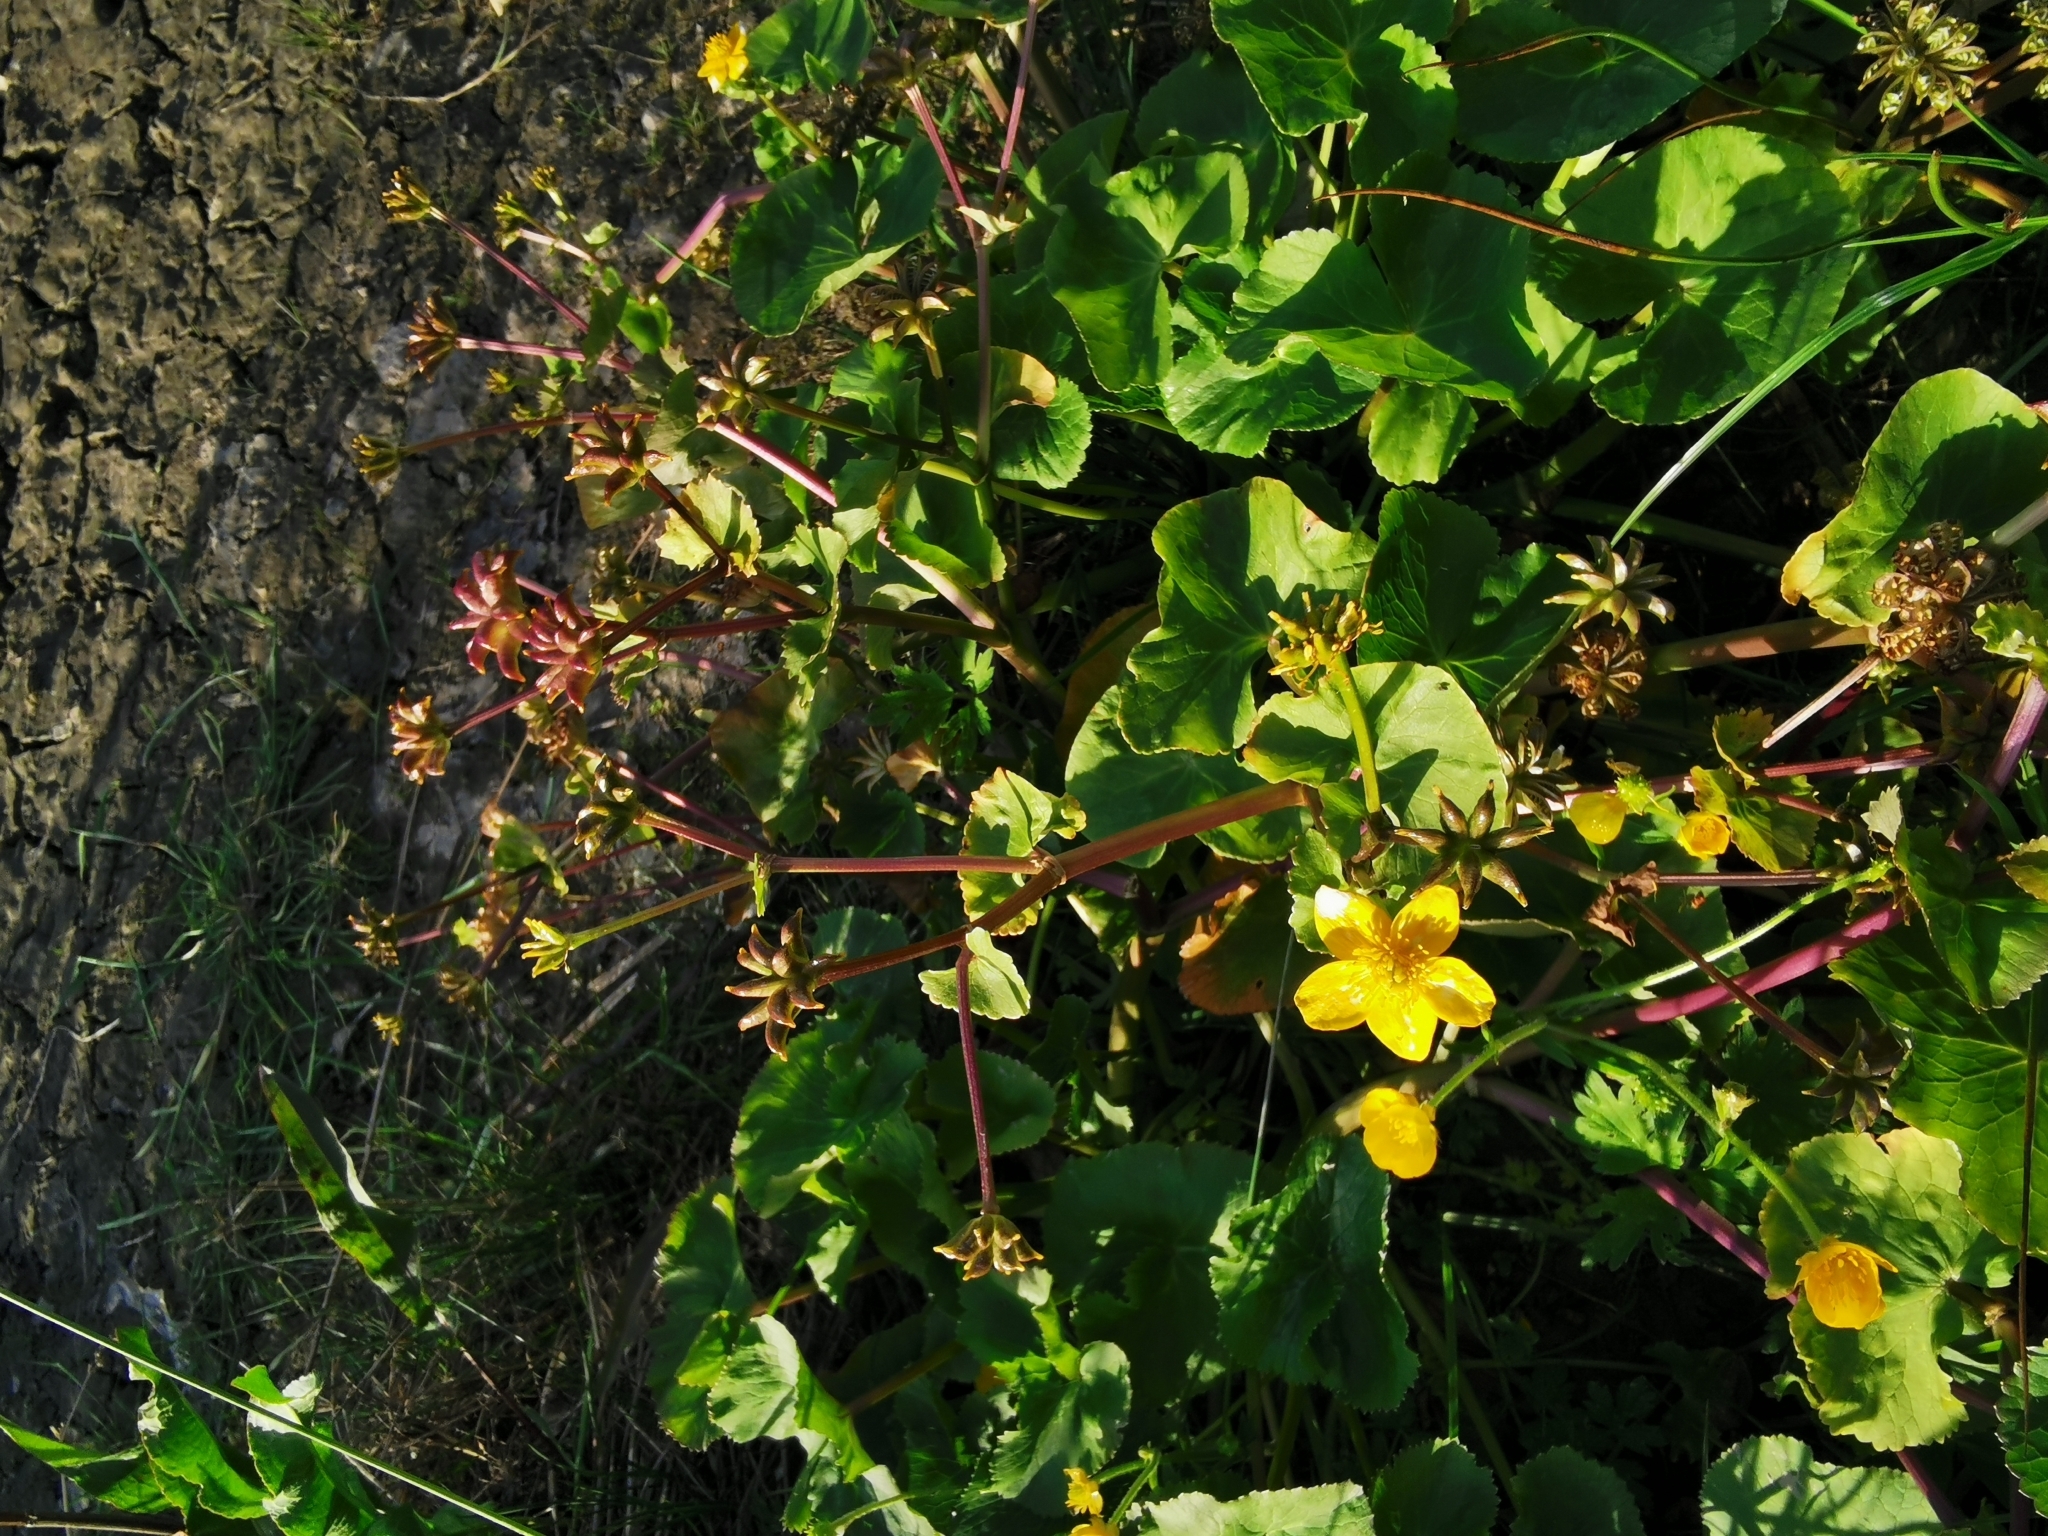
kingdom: Plantae
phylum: Tracheophyta
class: Magnoliopsida
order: Ranunculales
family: Ranunculaceae
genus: Caltha
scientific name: Caltha palustris
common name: Marsh marigold
